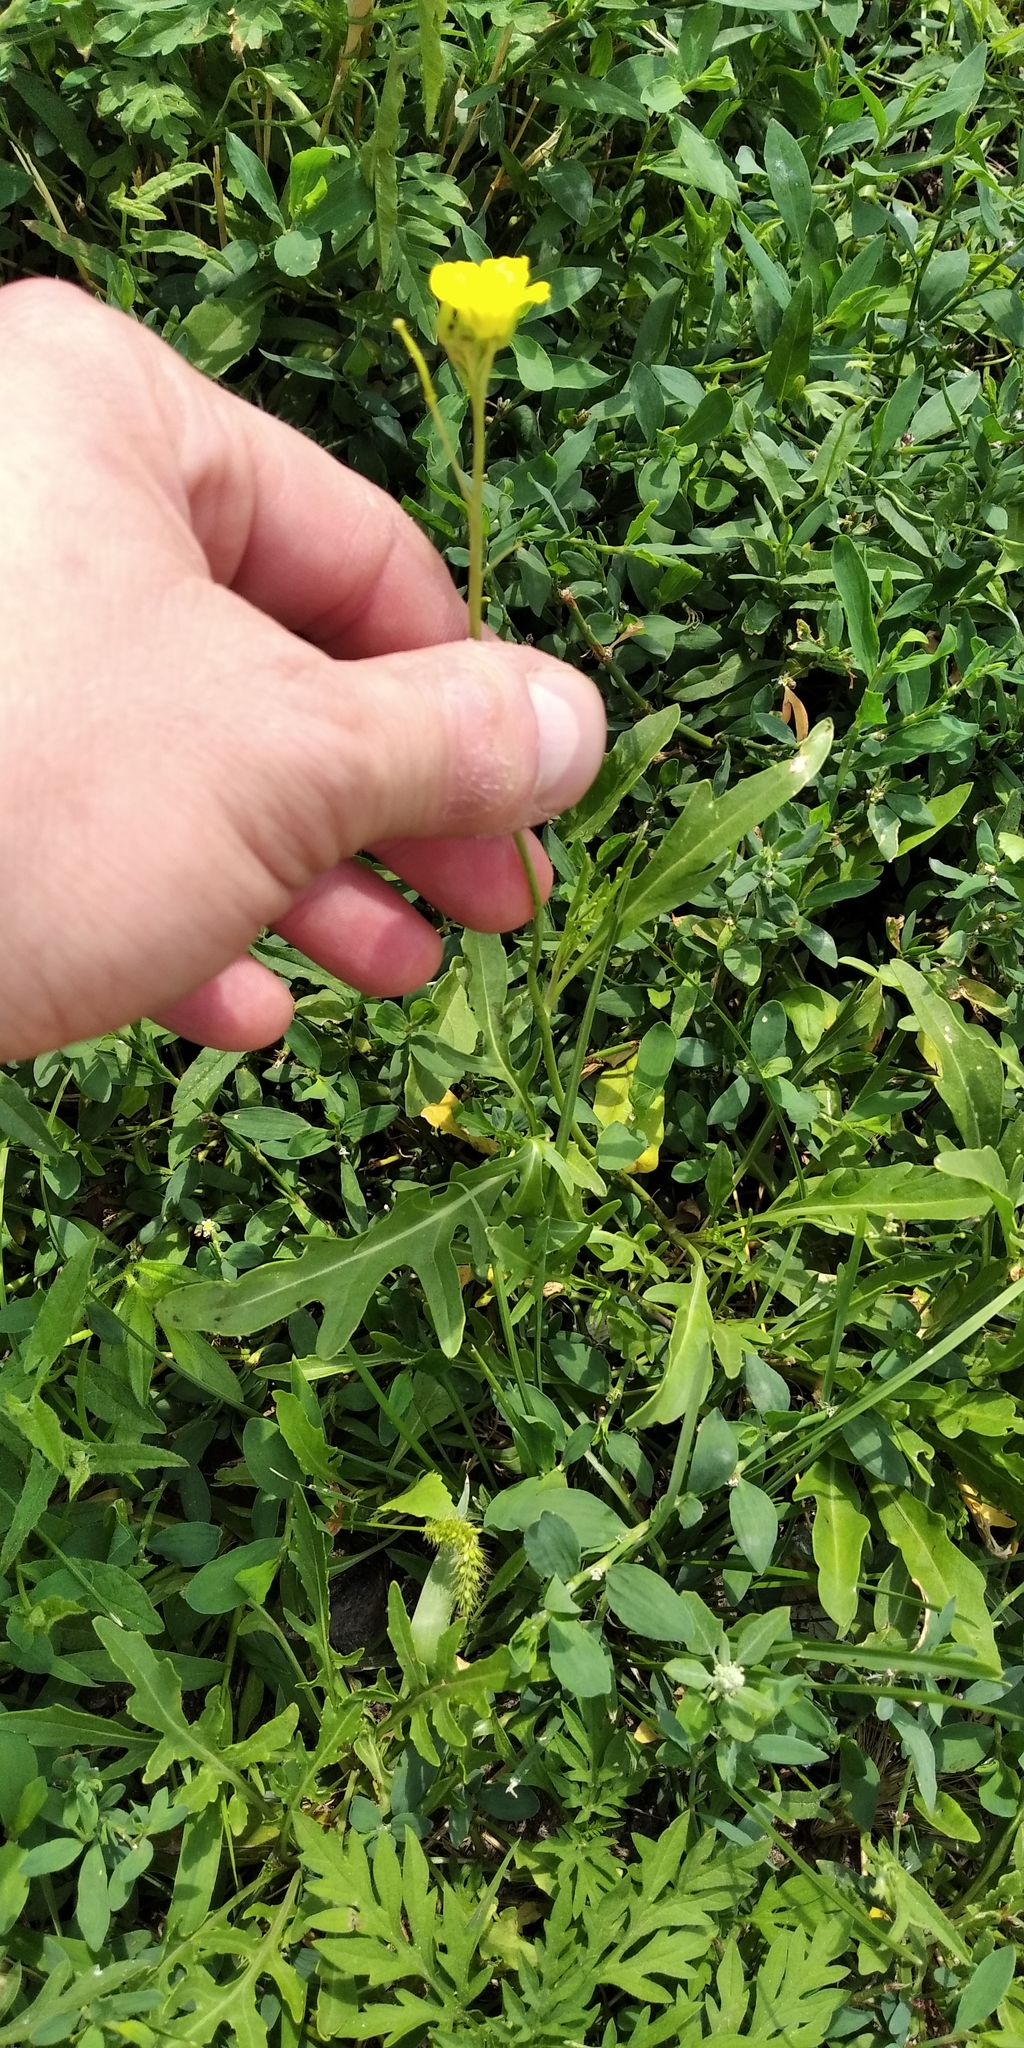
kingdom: Plantae
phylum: Tracheophyta
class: Magnoliopsida
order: Brassicales
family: Brassicaceae
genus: Diplotaxis
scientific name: Diplotaxis tenuifolia
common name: Perennial wall-rocket
